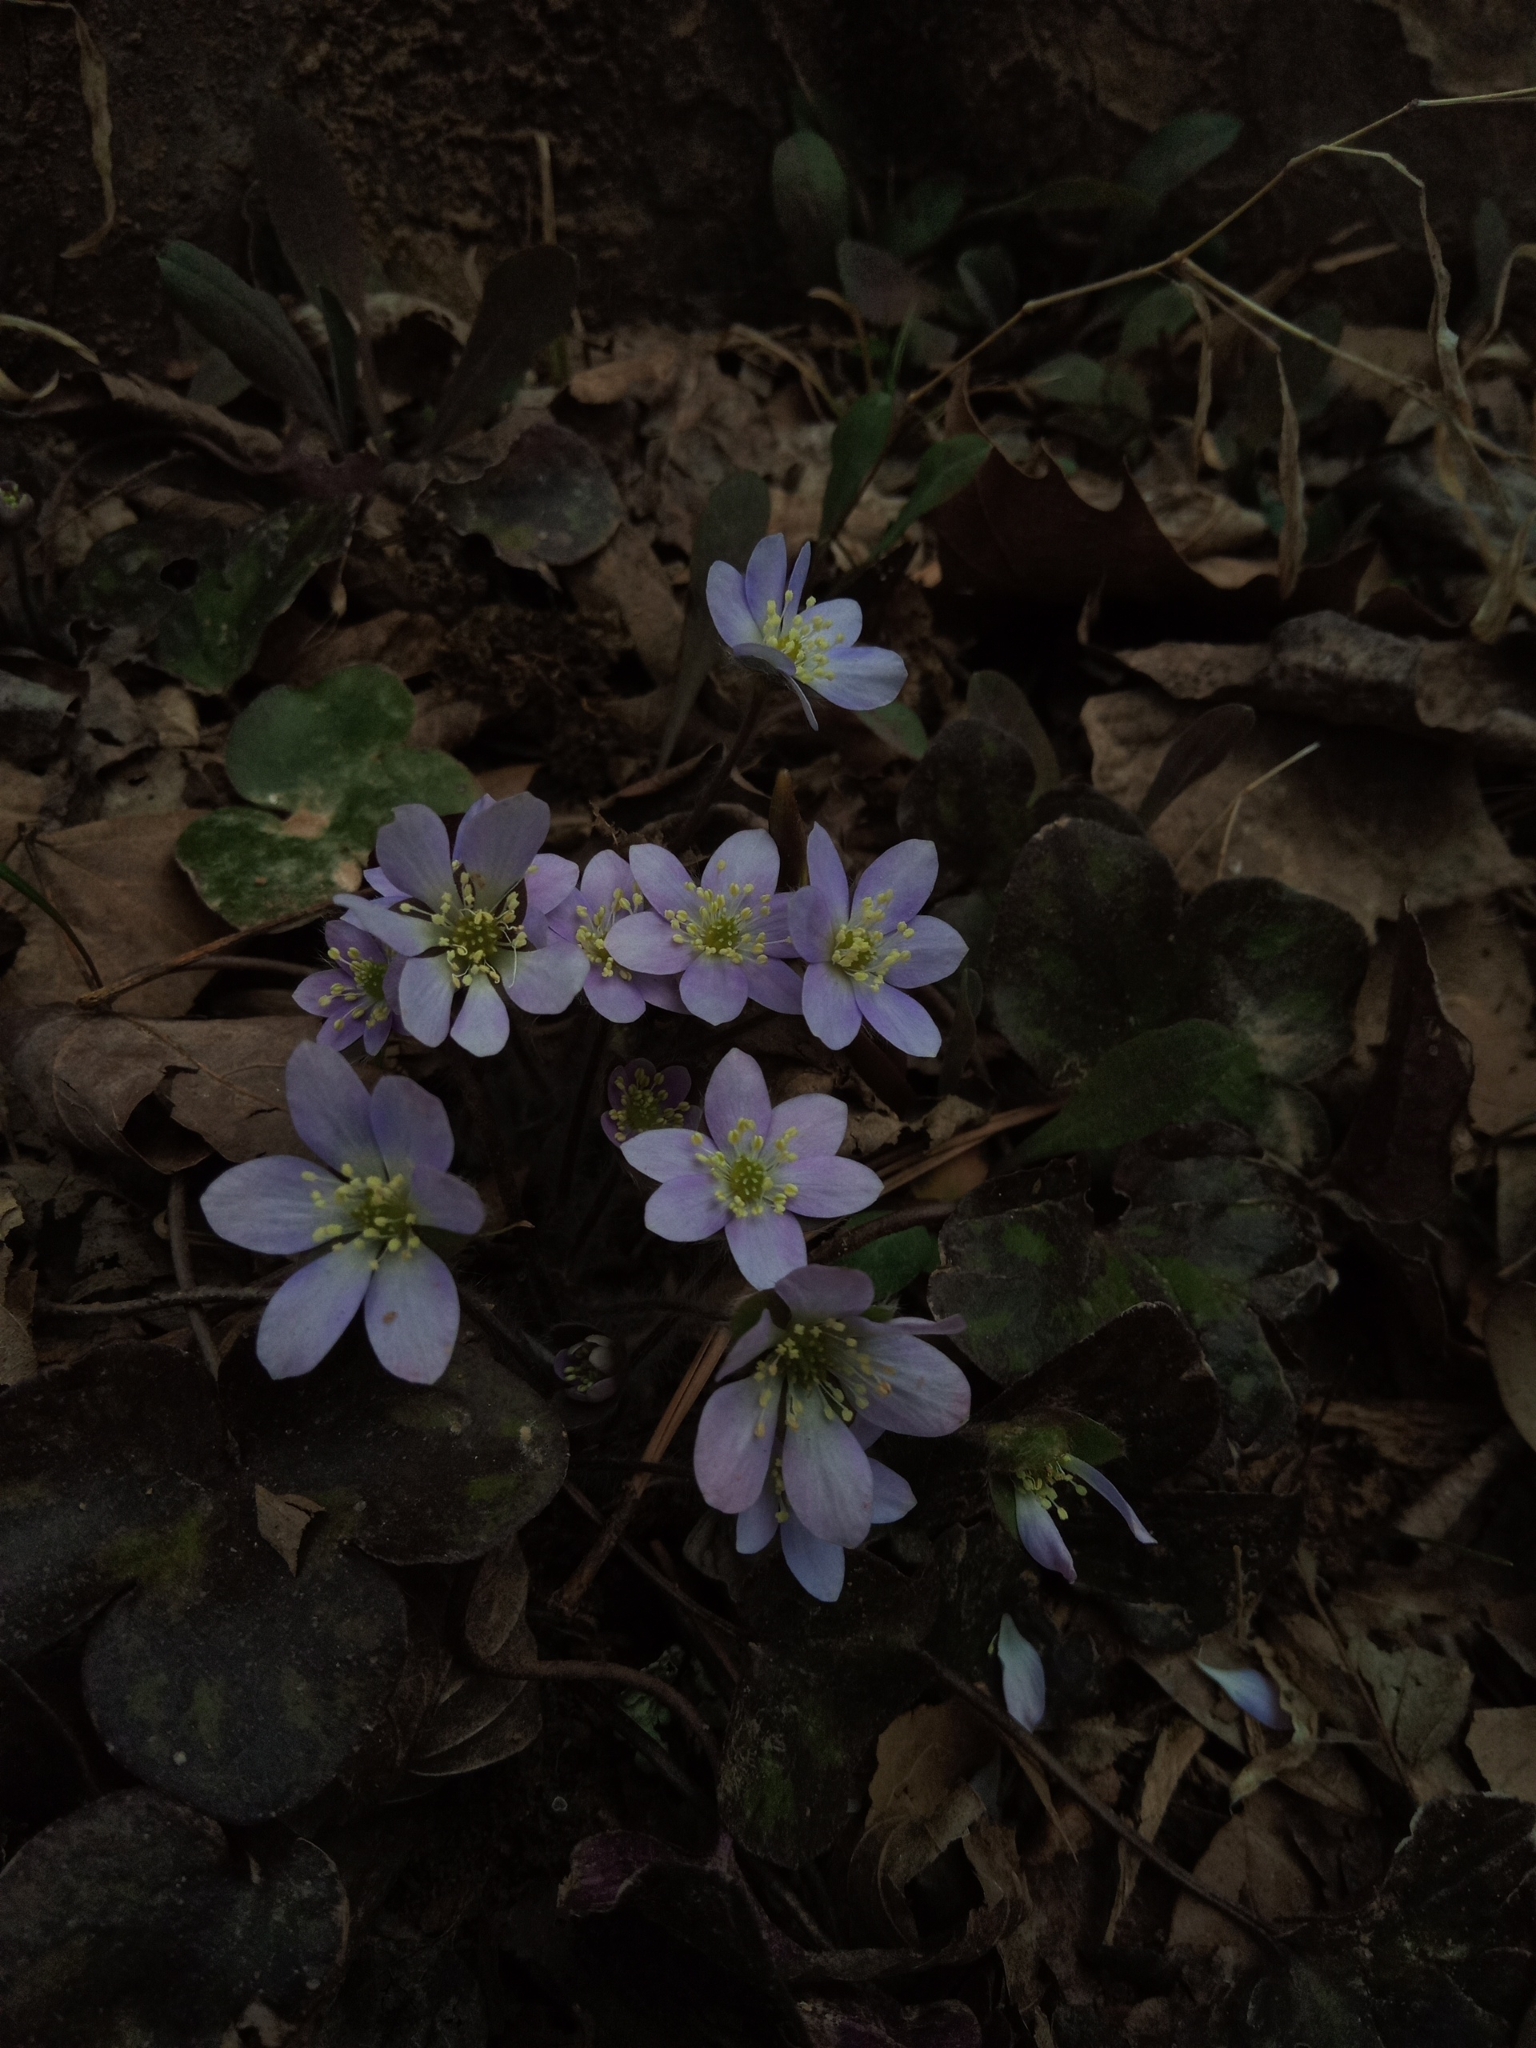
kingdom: Plantae
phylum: Tracheophyta
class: Magnoliopsida
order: Ranunculales
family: Ranunculaceae
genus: Hepatica
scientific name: Hepatica americana
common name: American hepatica
